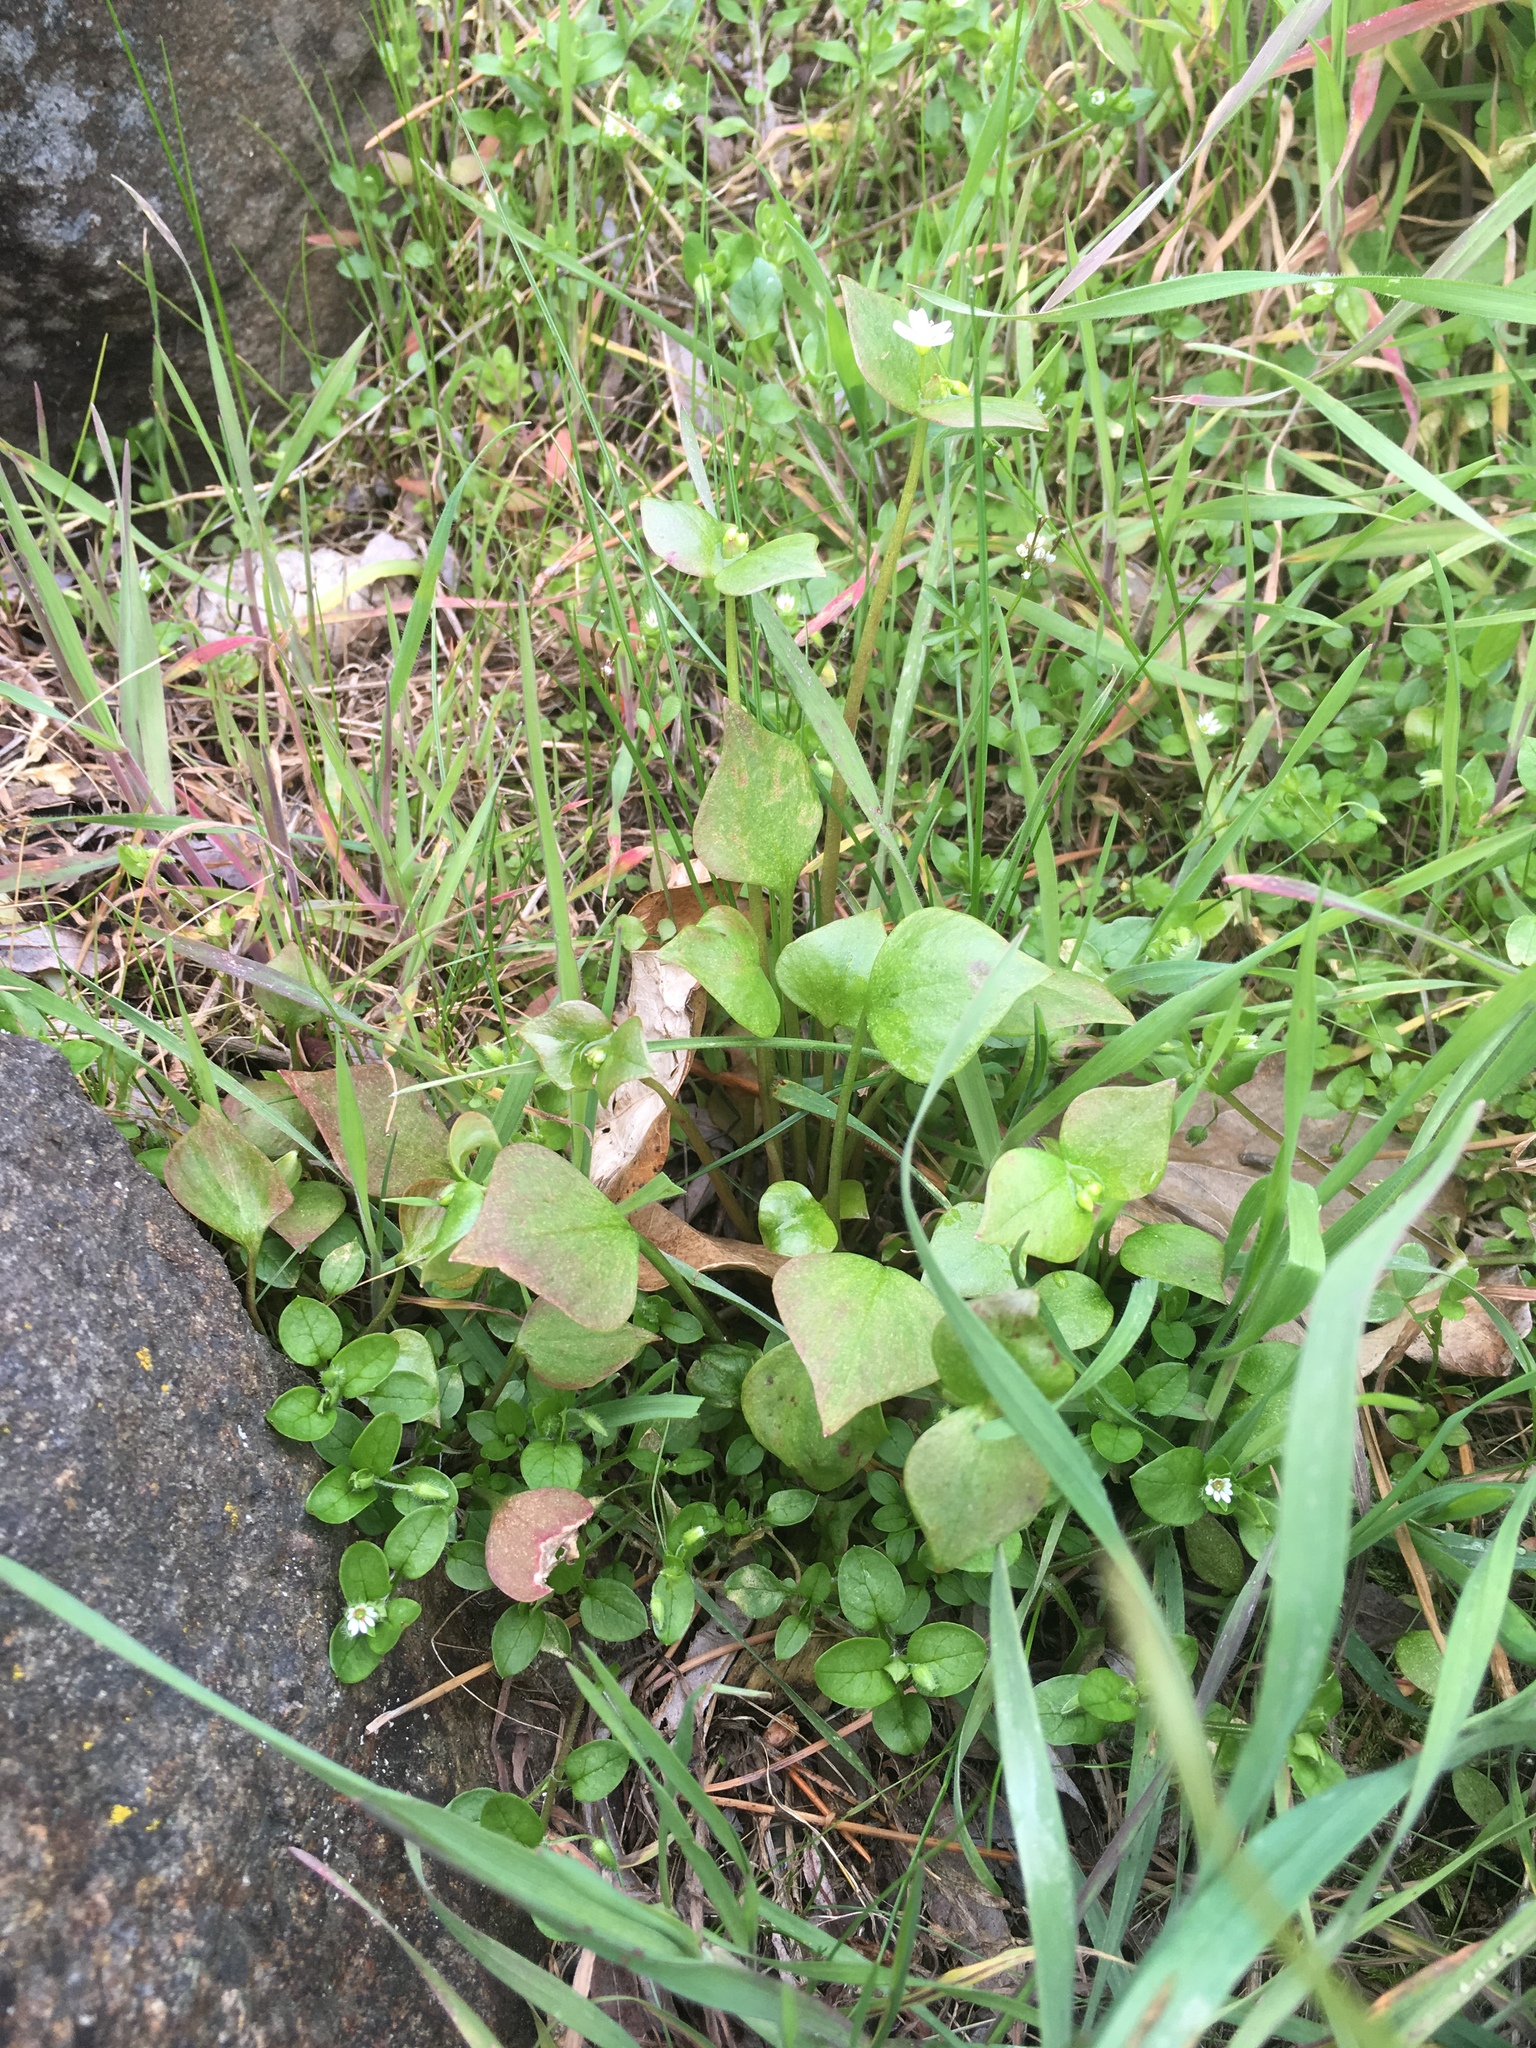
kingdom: Plantae
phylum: Tracheophyta
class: Magnoliopsida
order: Caryophyllales
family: Montiaceae
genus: Claytonia
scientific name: Claytonia washingtoniana
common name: Lake washington claytonia
